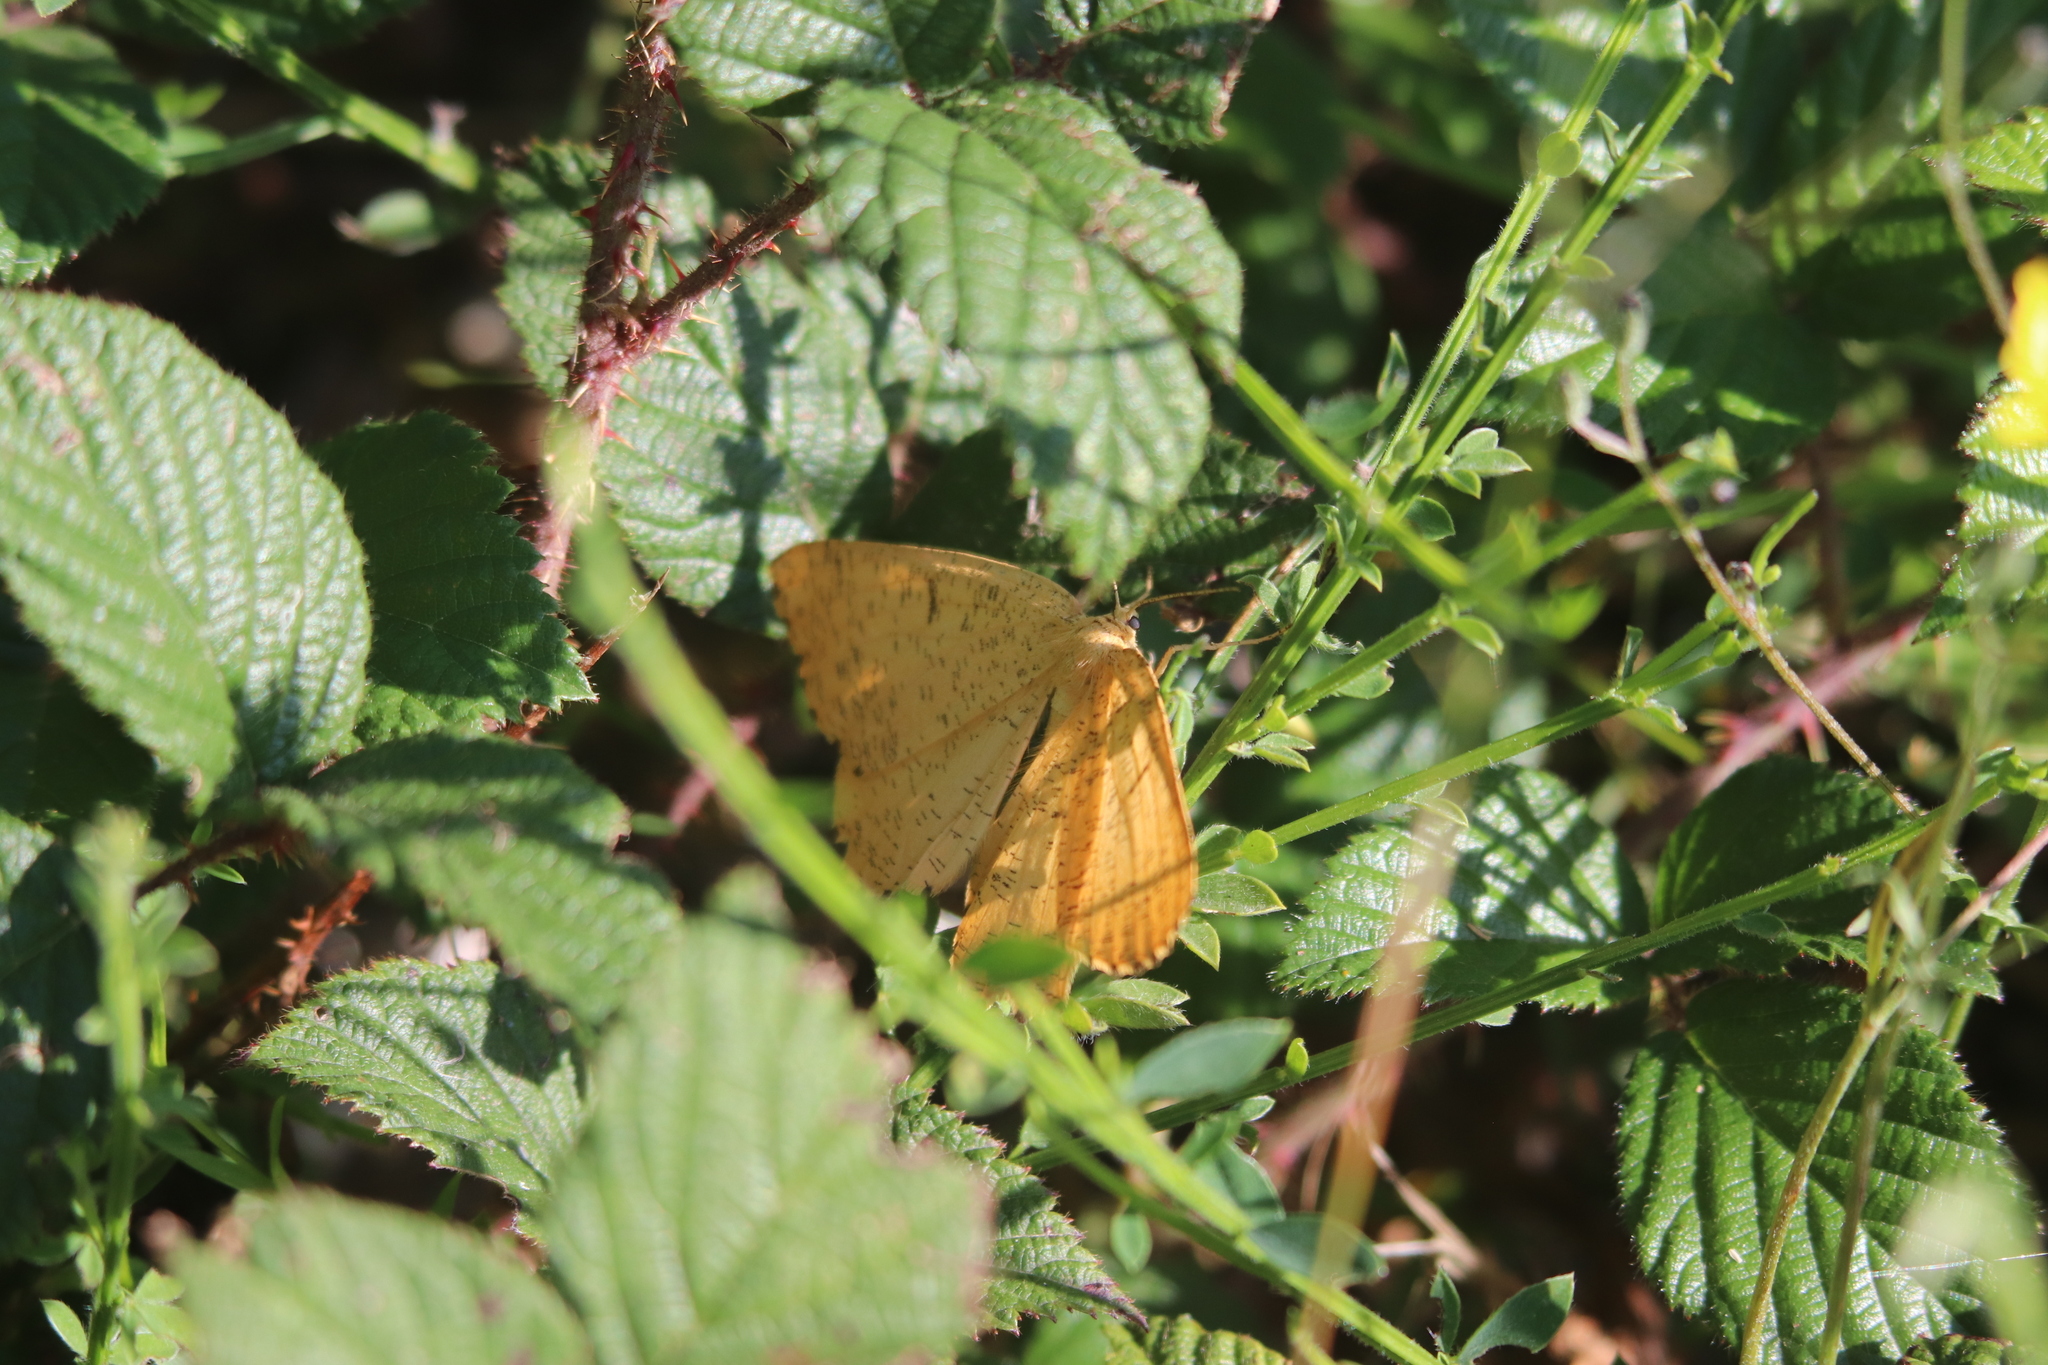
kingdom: Animalia
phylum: Arthropoda
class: Insecta
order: Lepidoptera
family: Geometridae
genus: Angerona
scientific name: Angerona prunaria
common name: Orange moth
